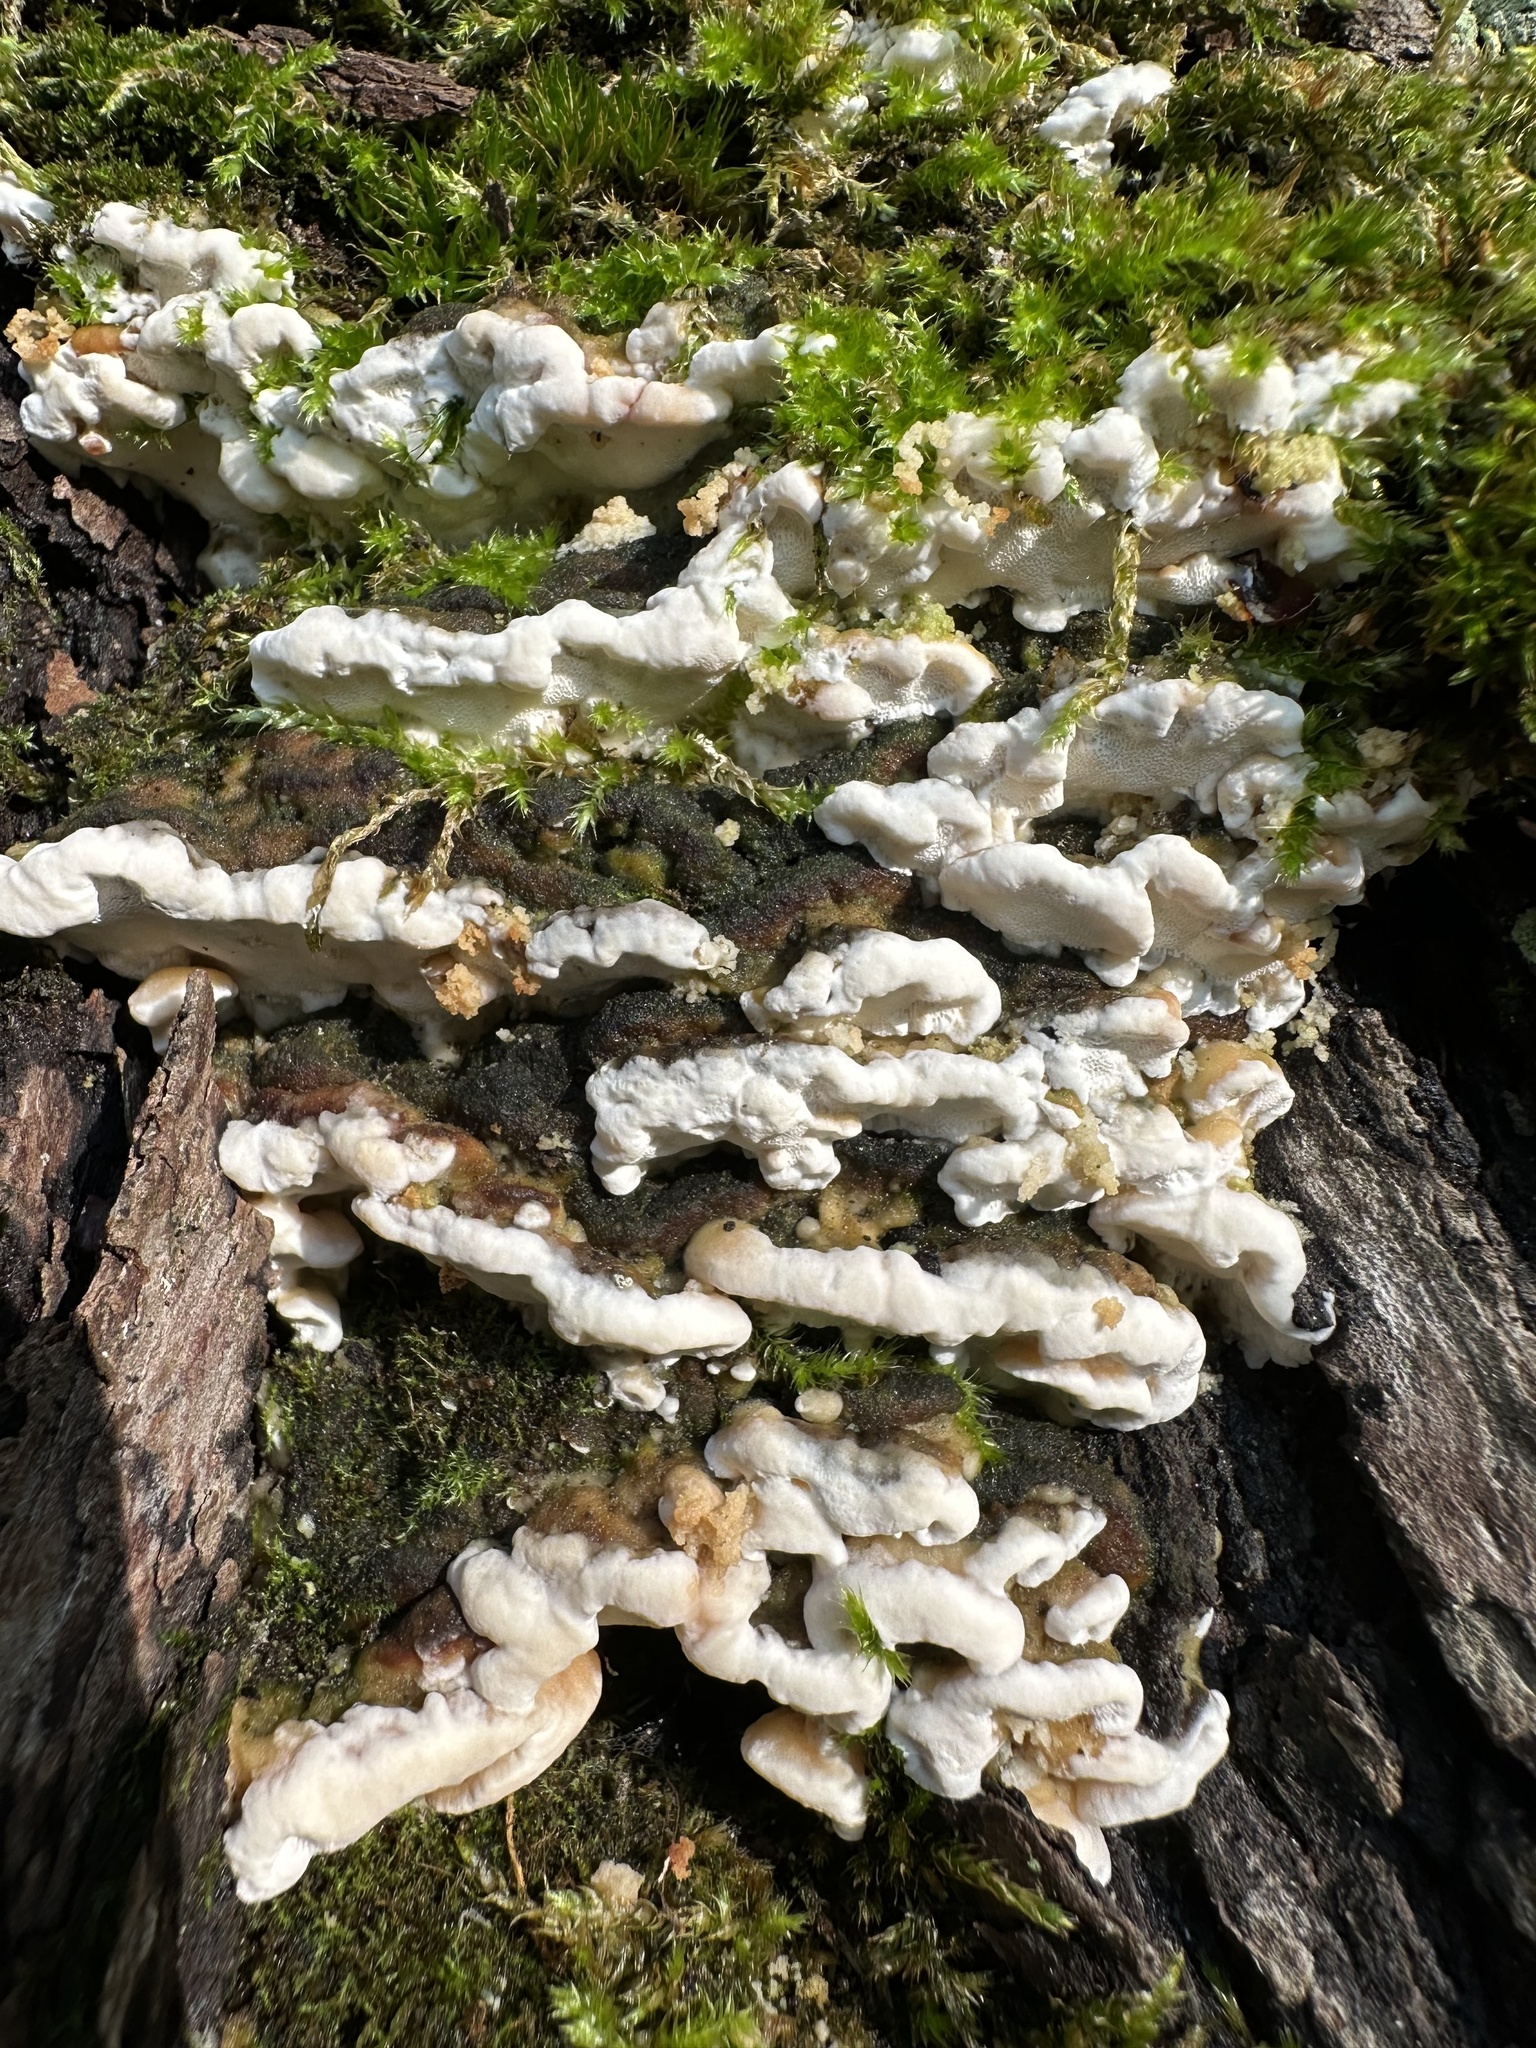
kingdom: Fungi
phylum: Basidiomycota
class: Agaricomycetes
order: Hymenochaetales
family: Oxyporaceae
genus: Oxyporus
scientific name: Oxyporus populinus
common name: Poplar bracket
